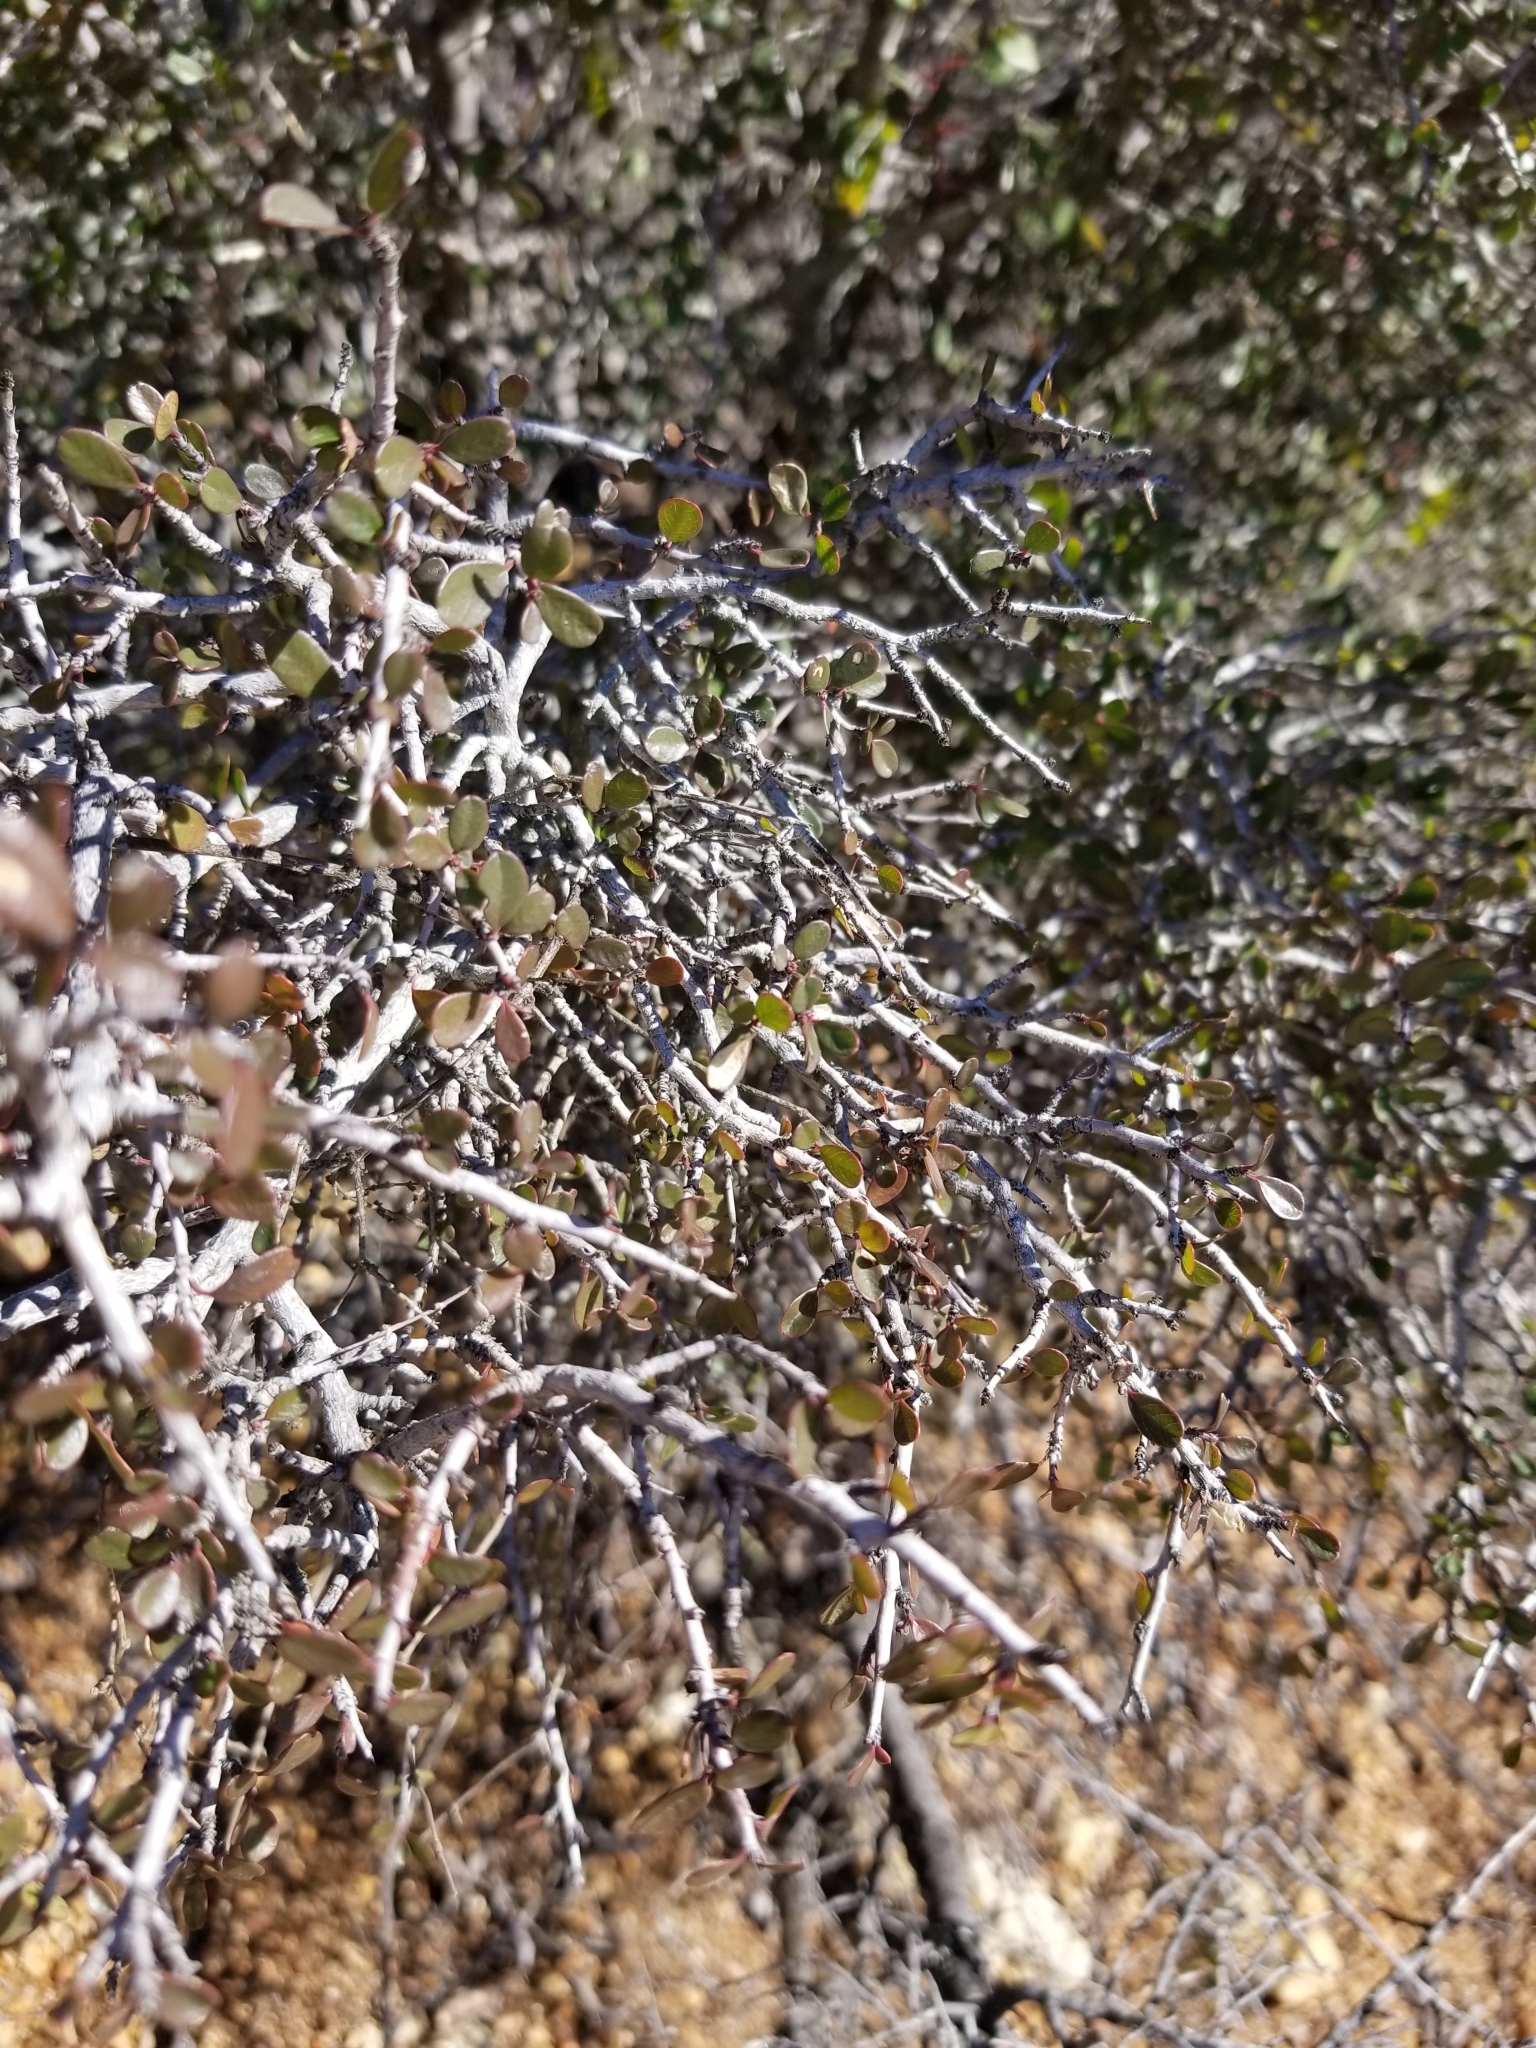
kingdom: Plantae
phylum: Tracheophyta
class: Magnoliopsida
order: Rosales
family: Rhamnaceae
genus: Endotropis
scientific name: Endotropis crocea
